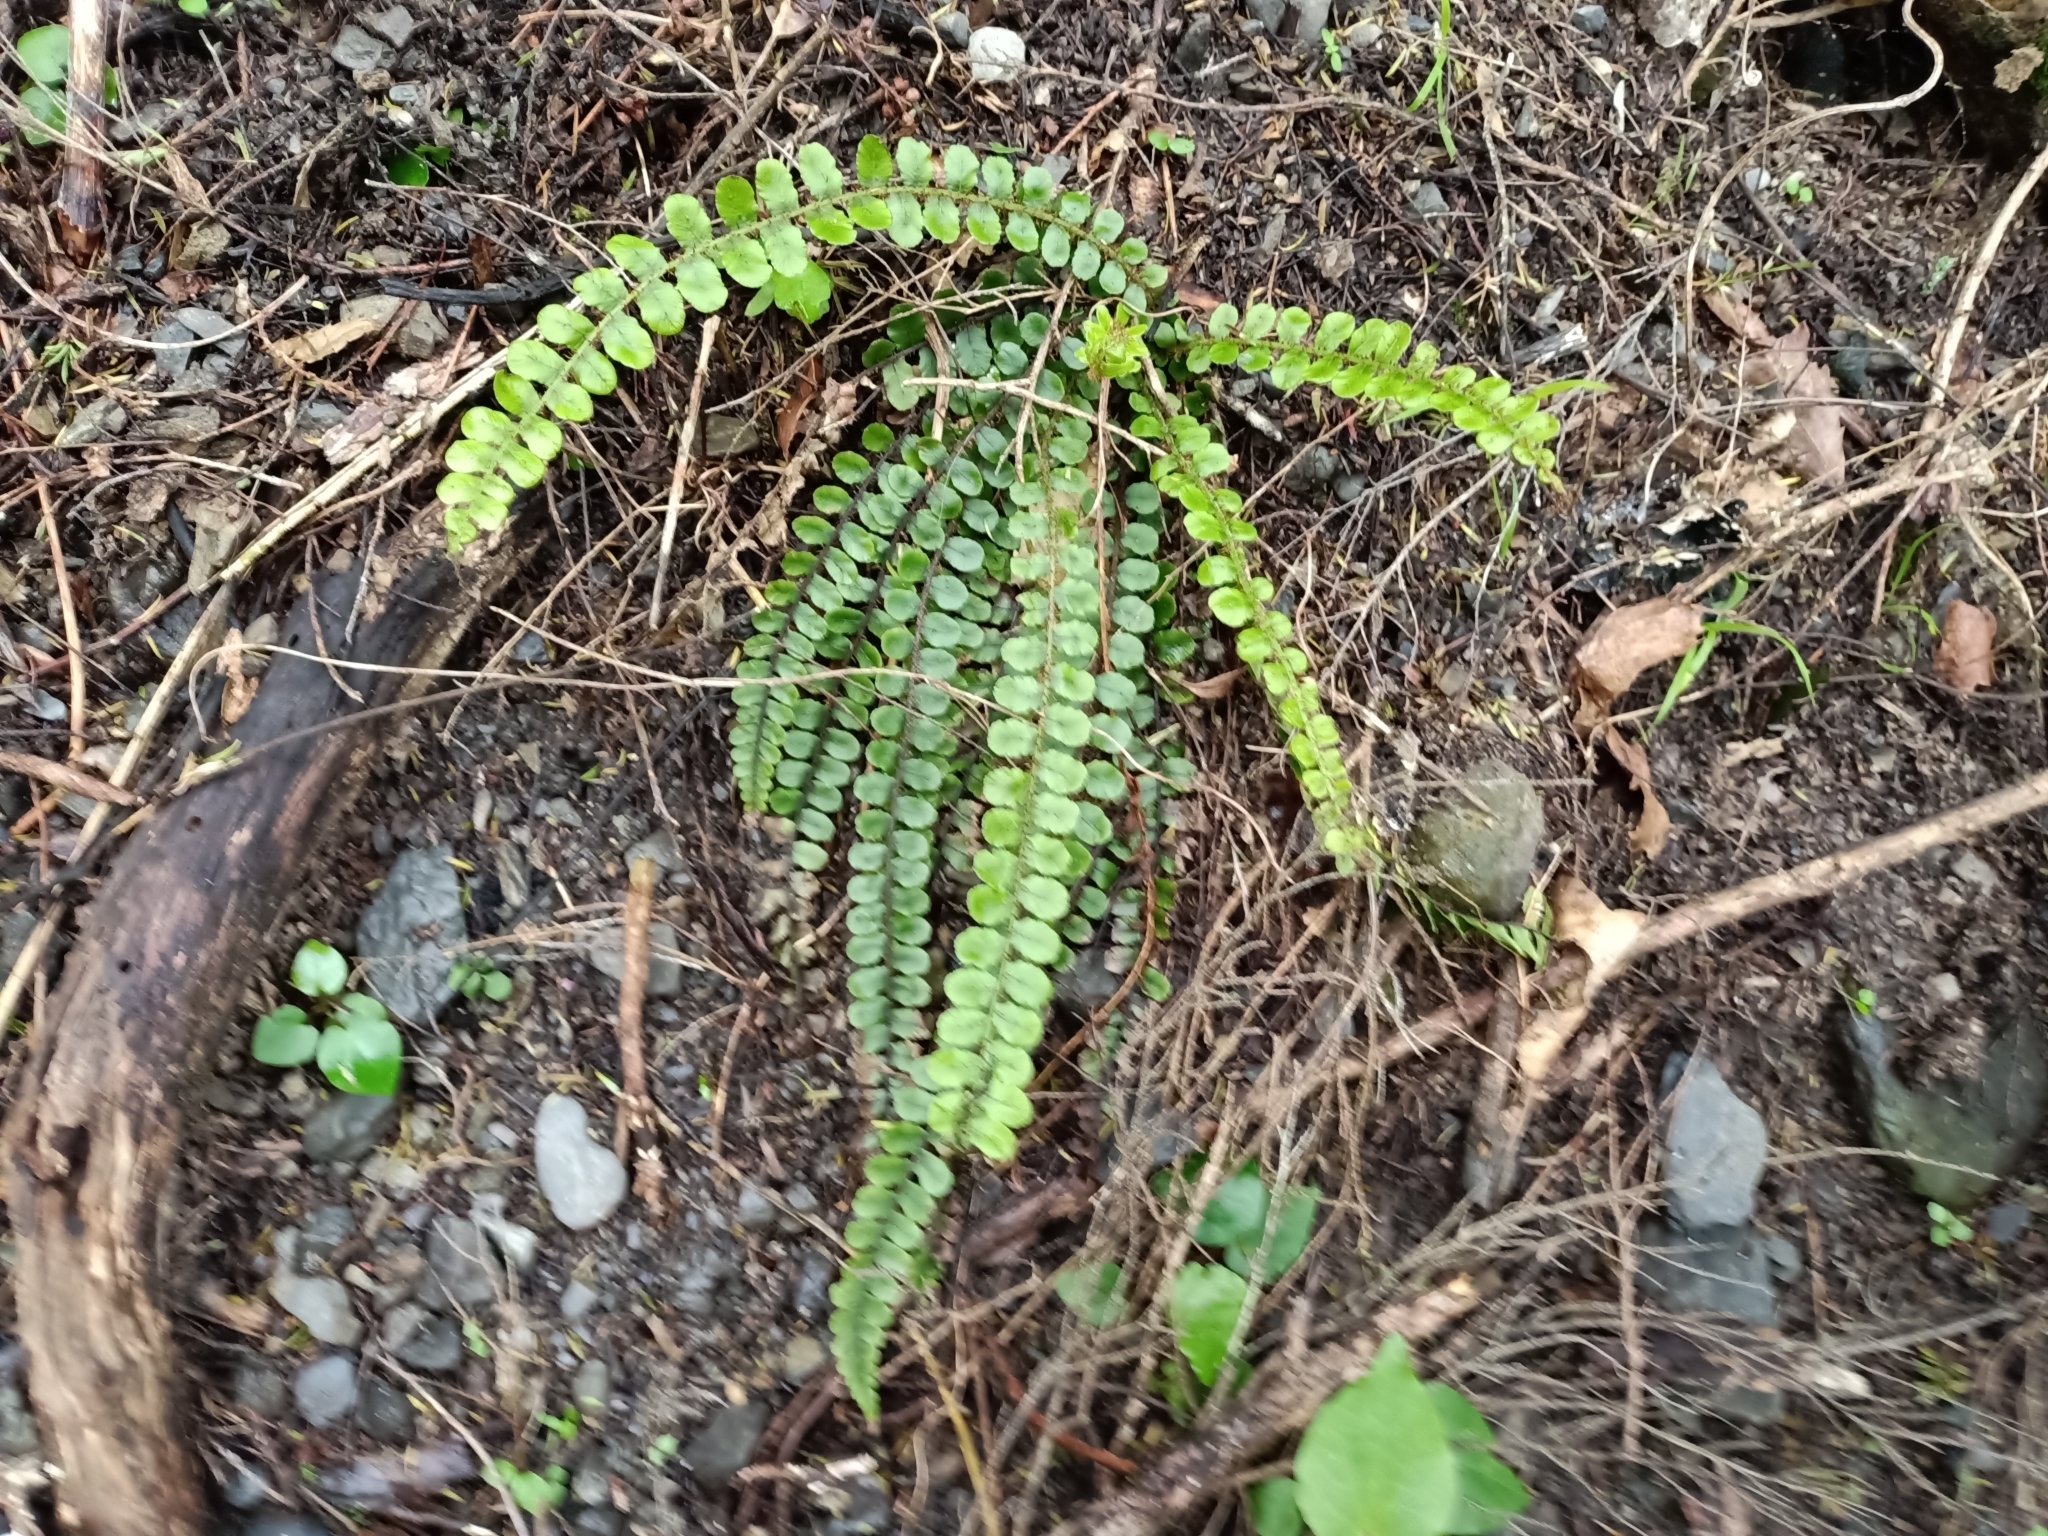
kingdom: Plantae
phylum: Tracheophyta
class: Polypodiopsida
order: Polypodiales
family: Blechnaceae
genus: Cranfillia
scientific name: Cranfillia fluviatilis
